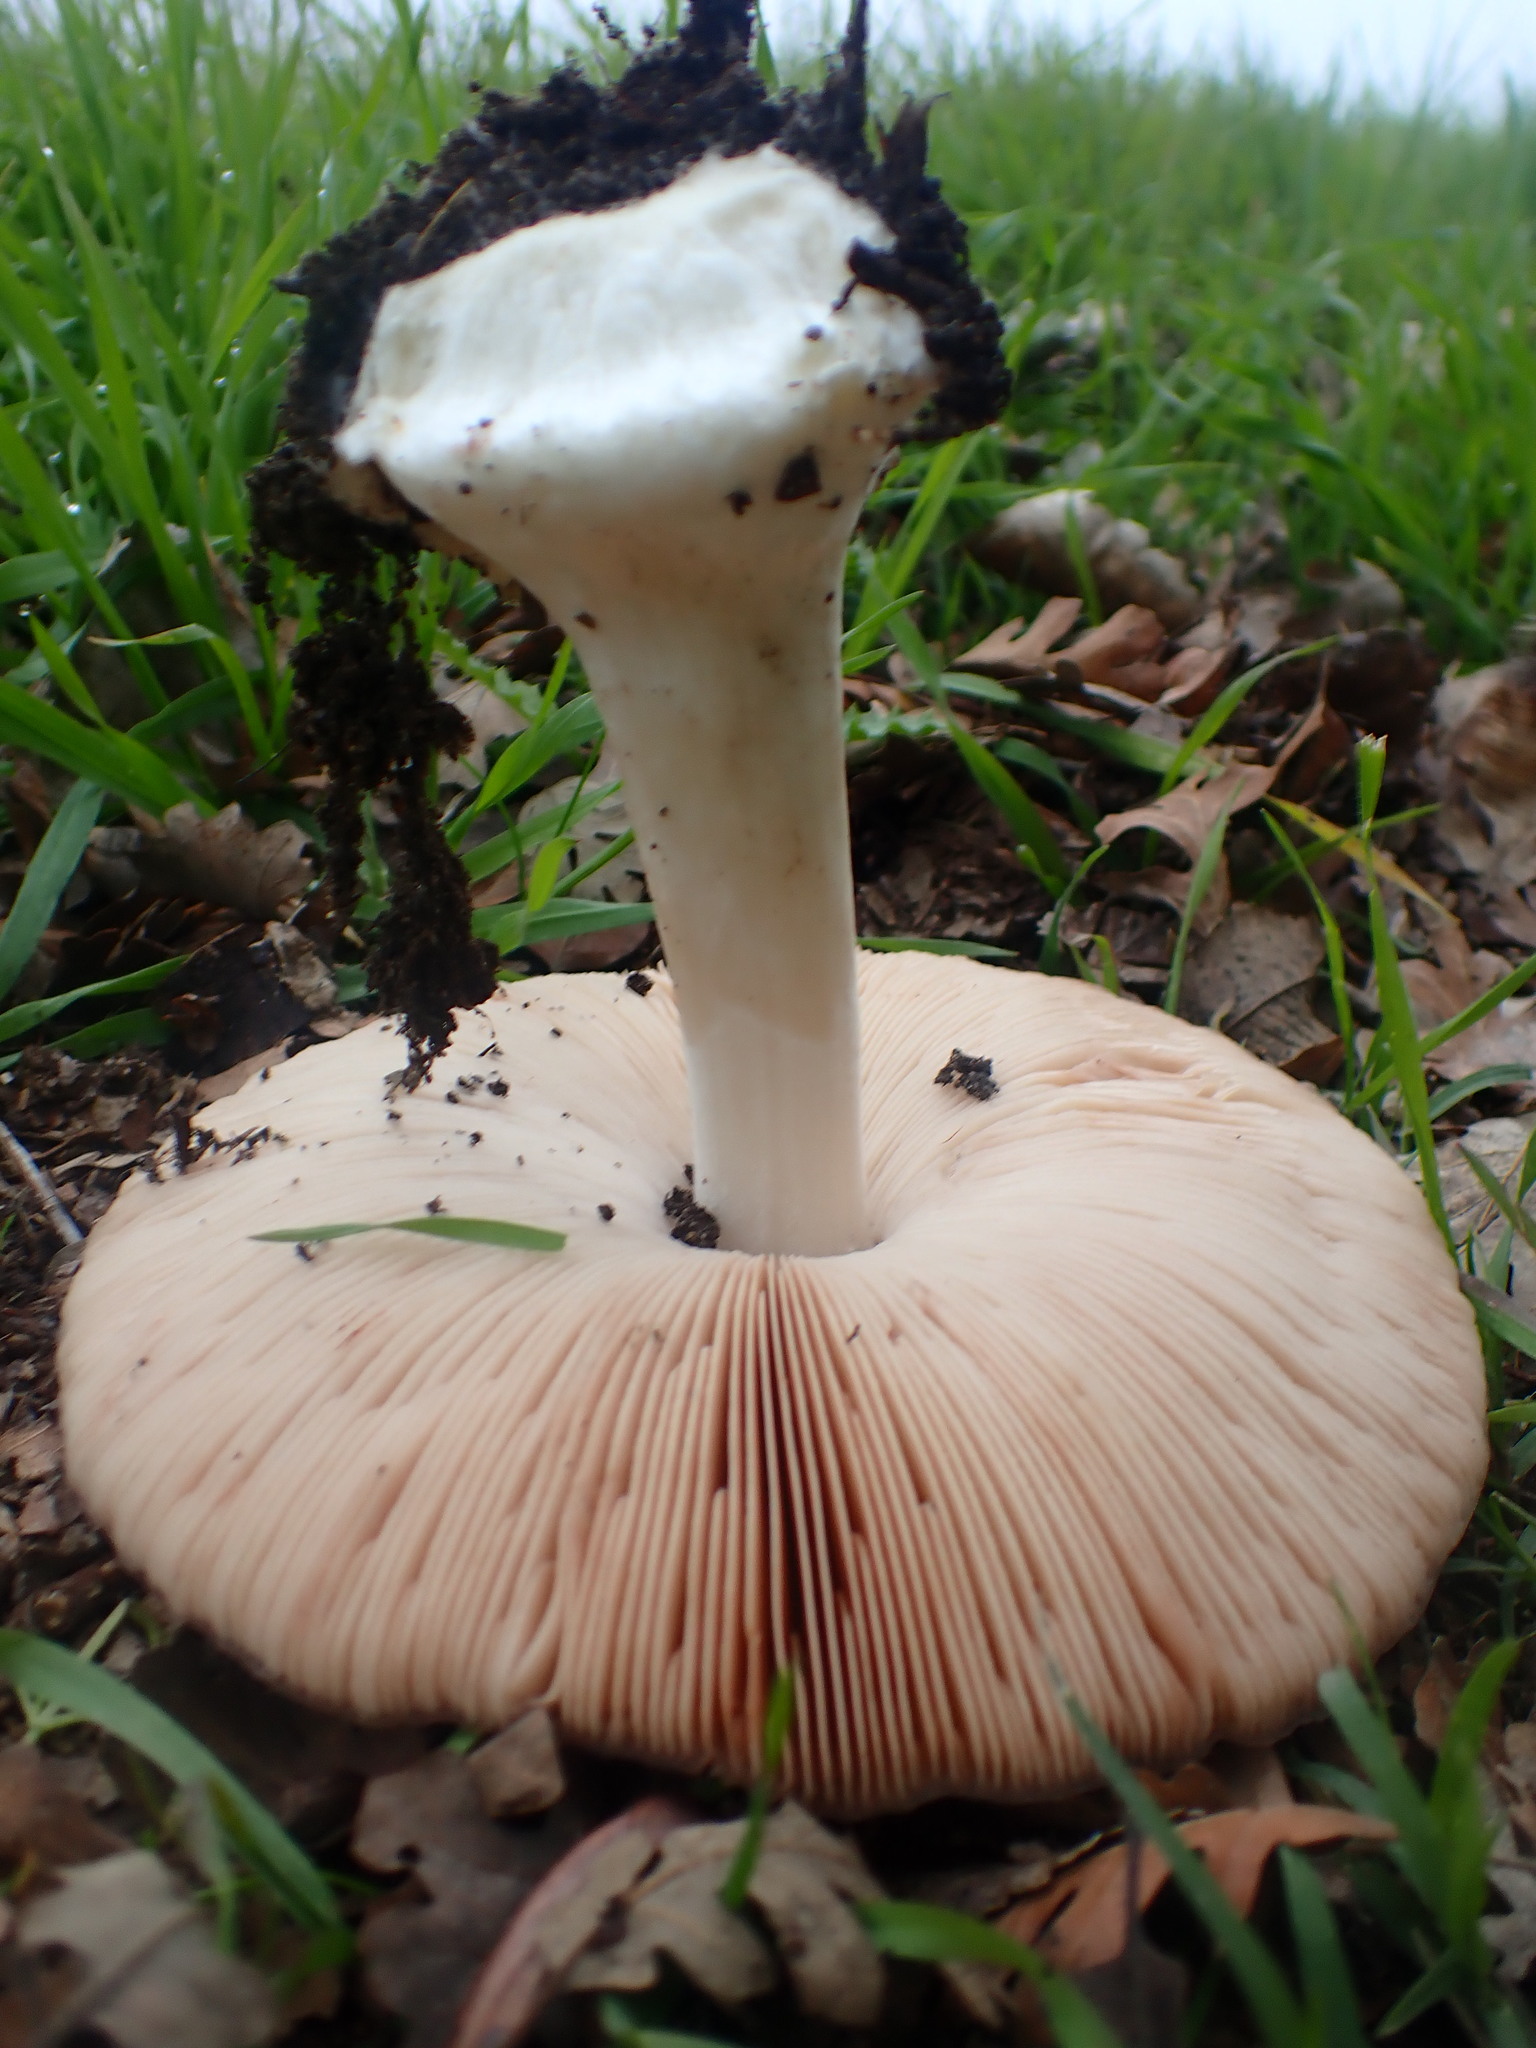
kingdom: Fungi
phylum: Basidiomycota
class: Agaricomycetes
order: Agaricales
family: Pluteaceae
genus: Volvopluteus
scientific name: Volvopluteus gloiocephalus
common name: Stubble rosegill
